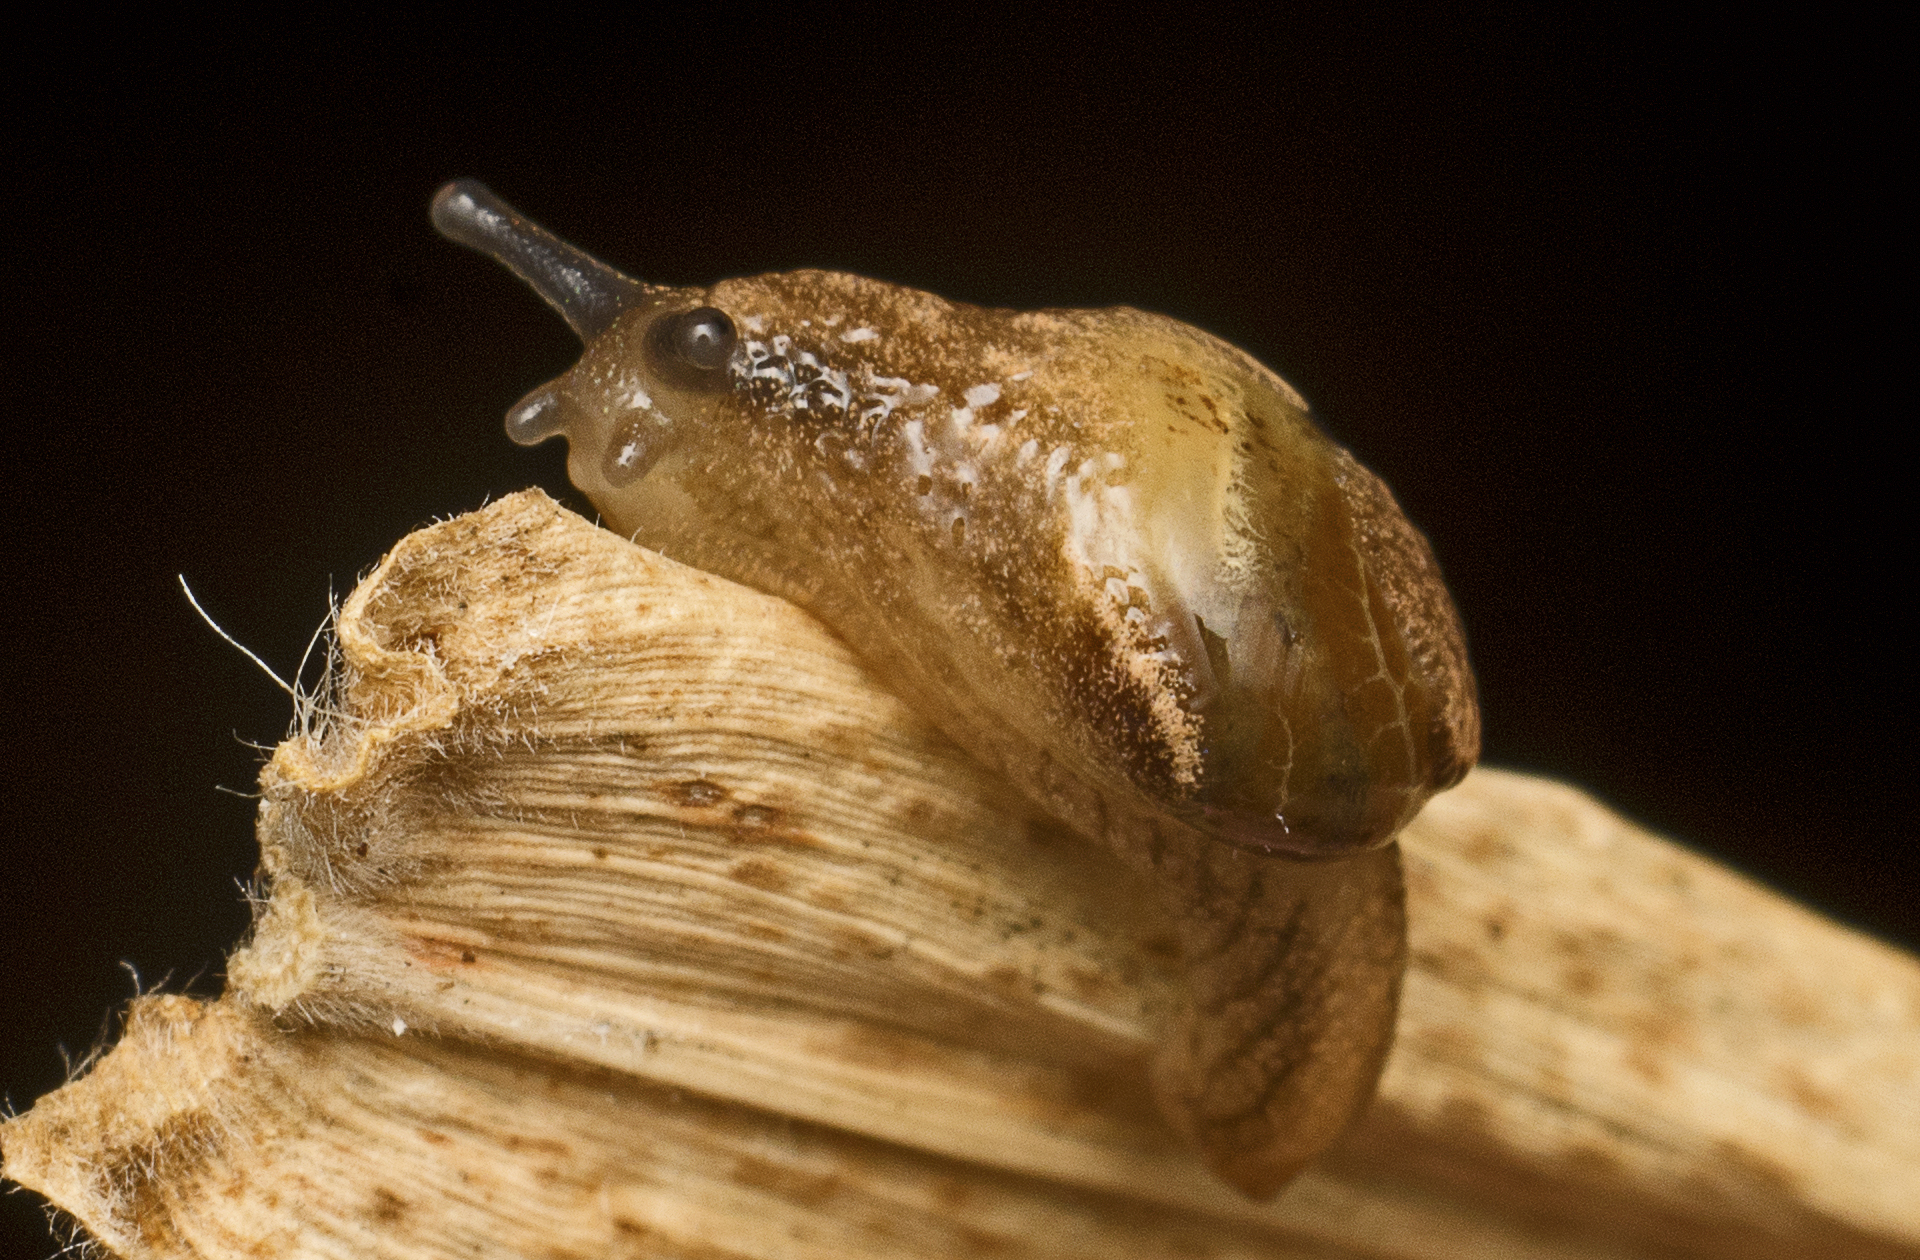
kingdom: Animalia
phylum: Mollusca
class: Gastropoda
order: Stylommatophora
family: Helicarionidae
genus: Ubiquitarion
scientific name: Ubiquitarion iridis
